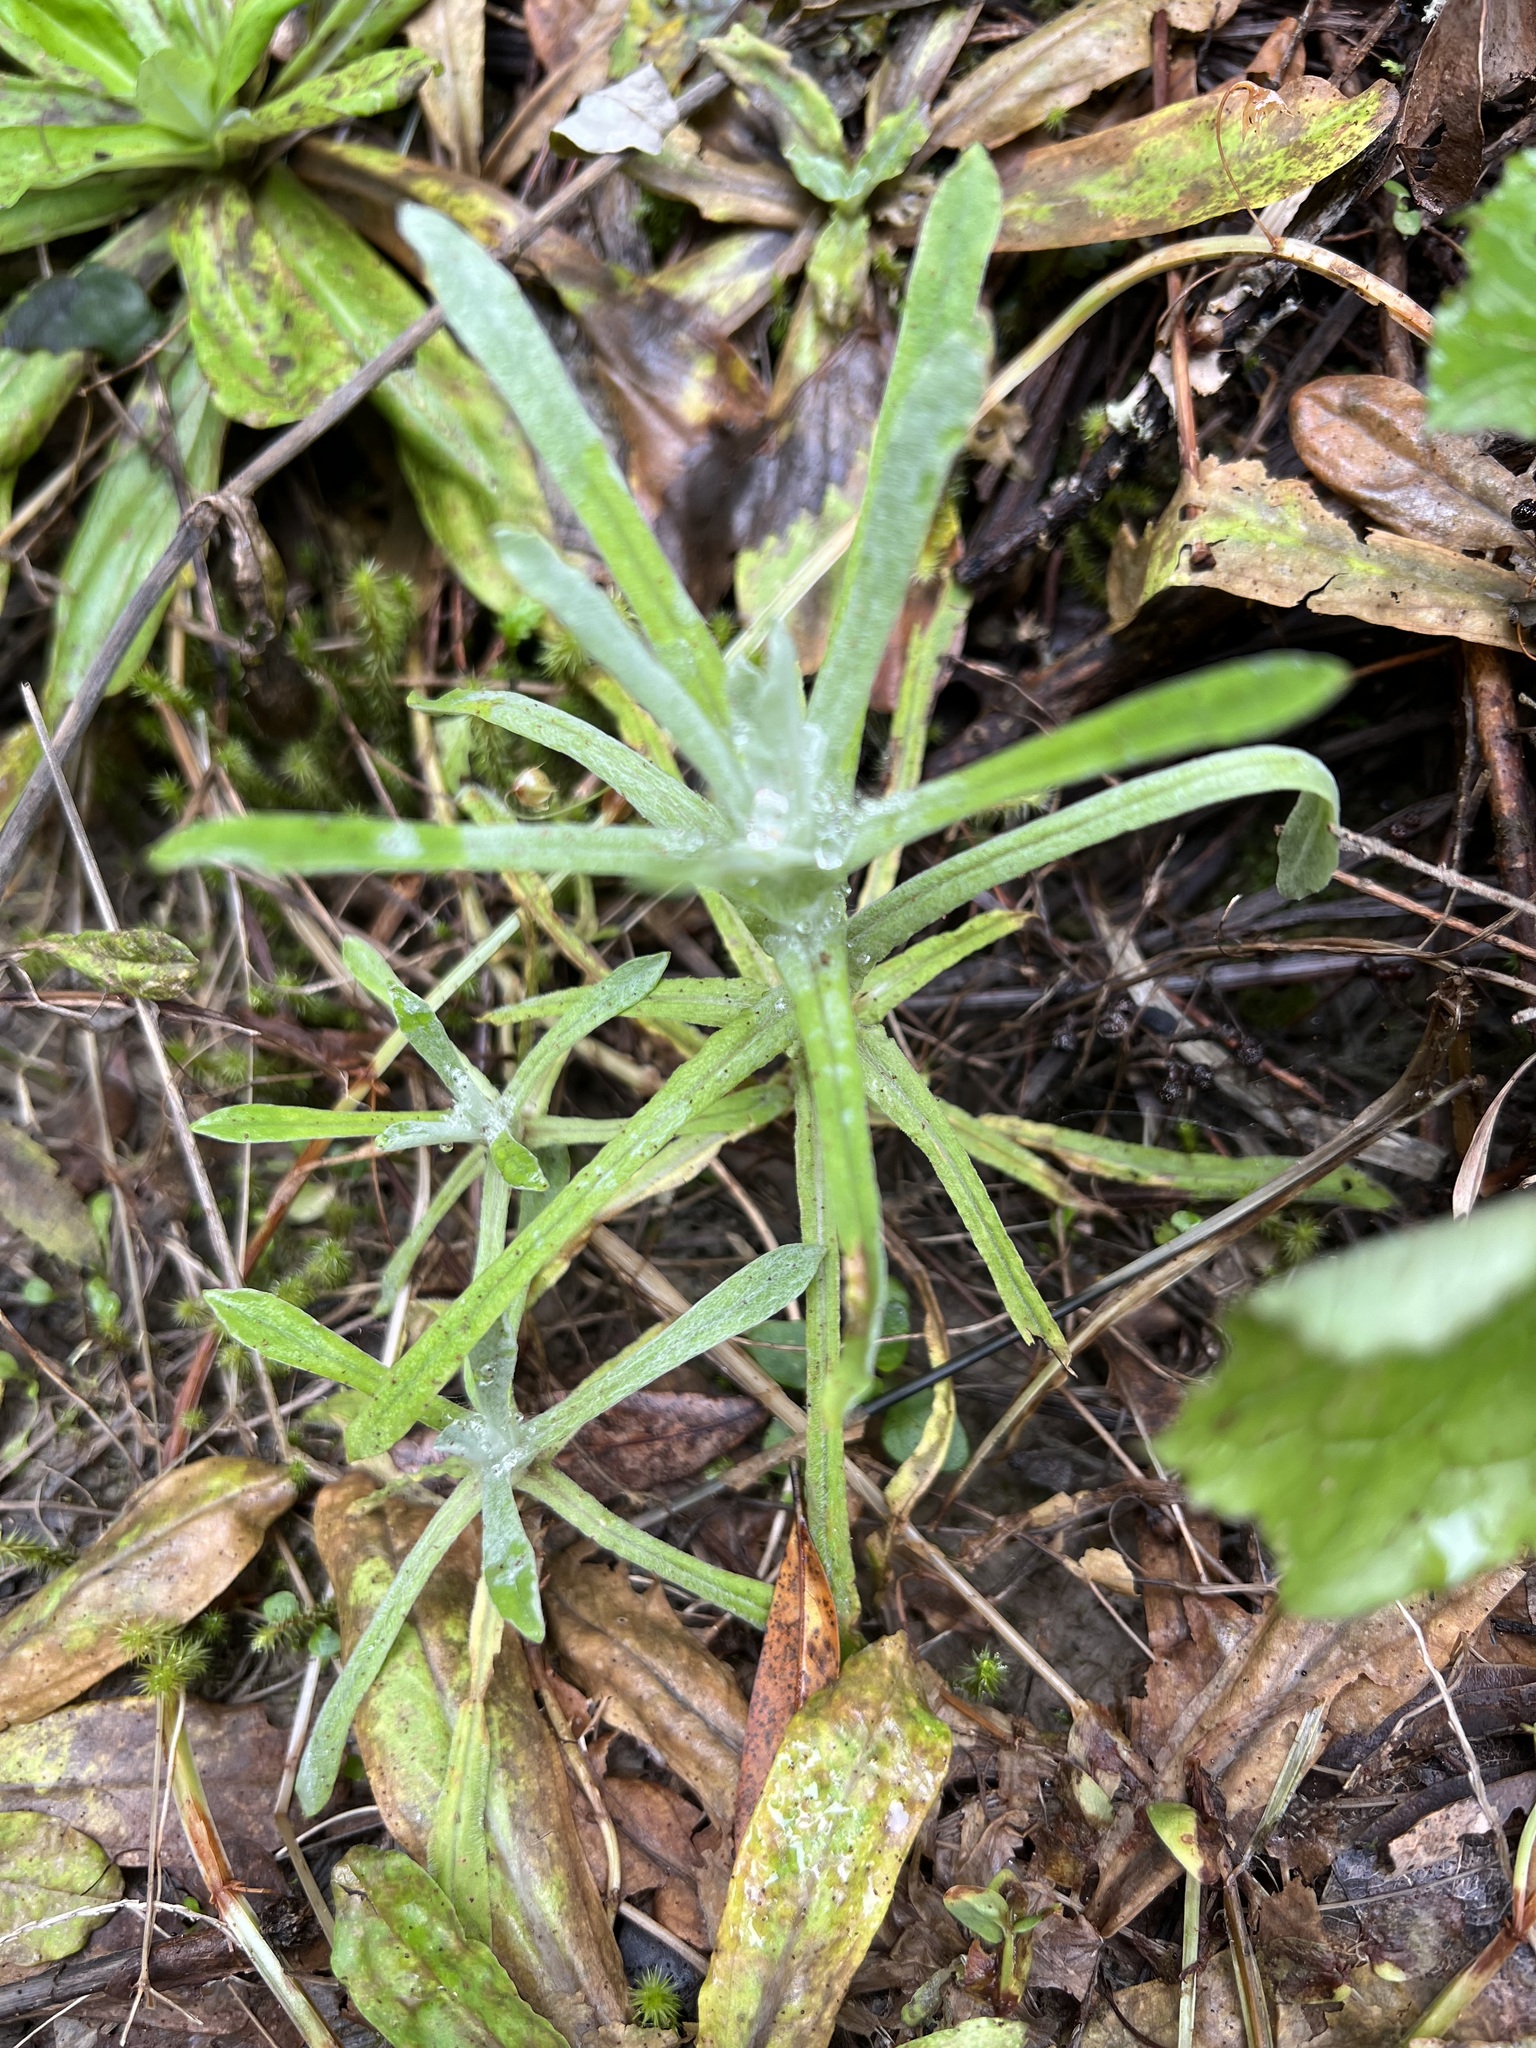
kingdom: Plantae
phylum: Tracheophyta
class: Magnoliopsida
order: Asterales
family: Asteraceae
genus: Helichrysum
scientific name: Helichrysum luteoalbum
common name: Daisy
